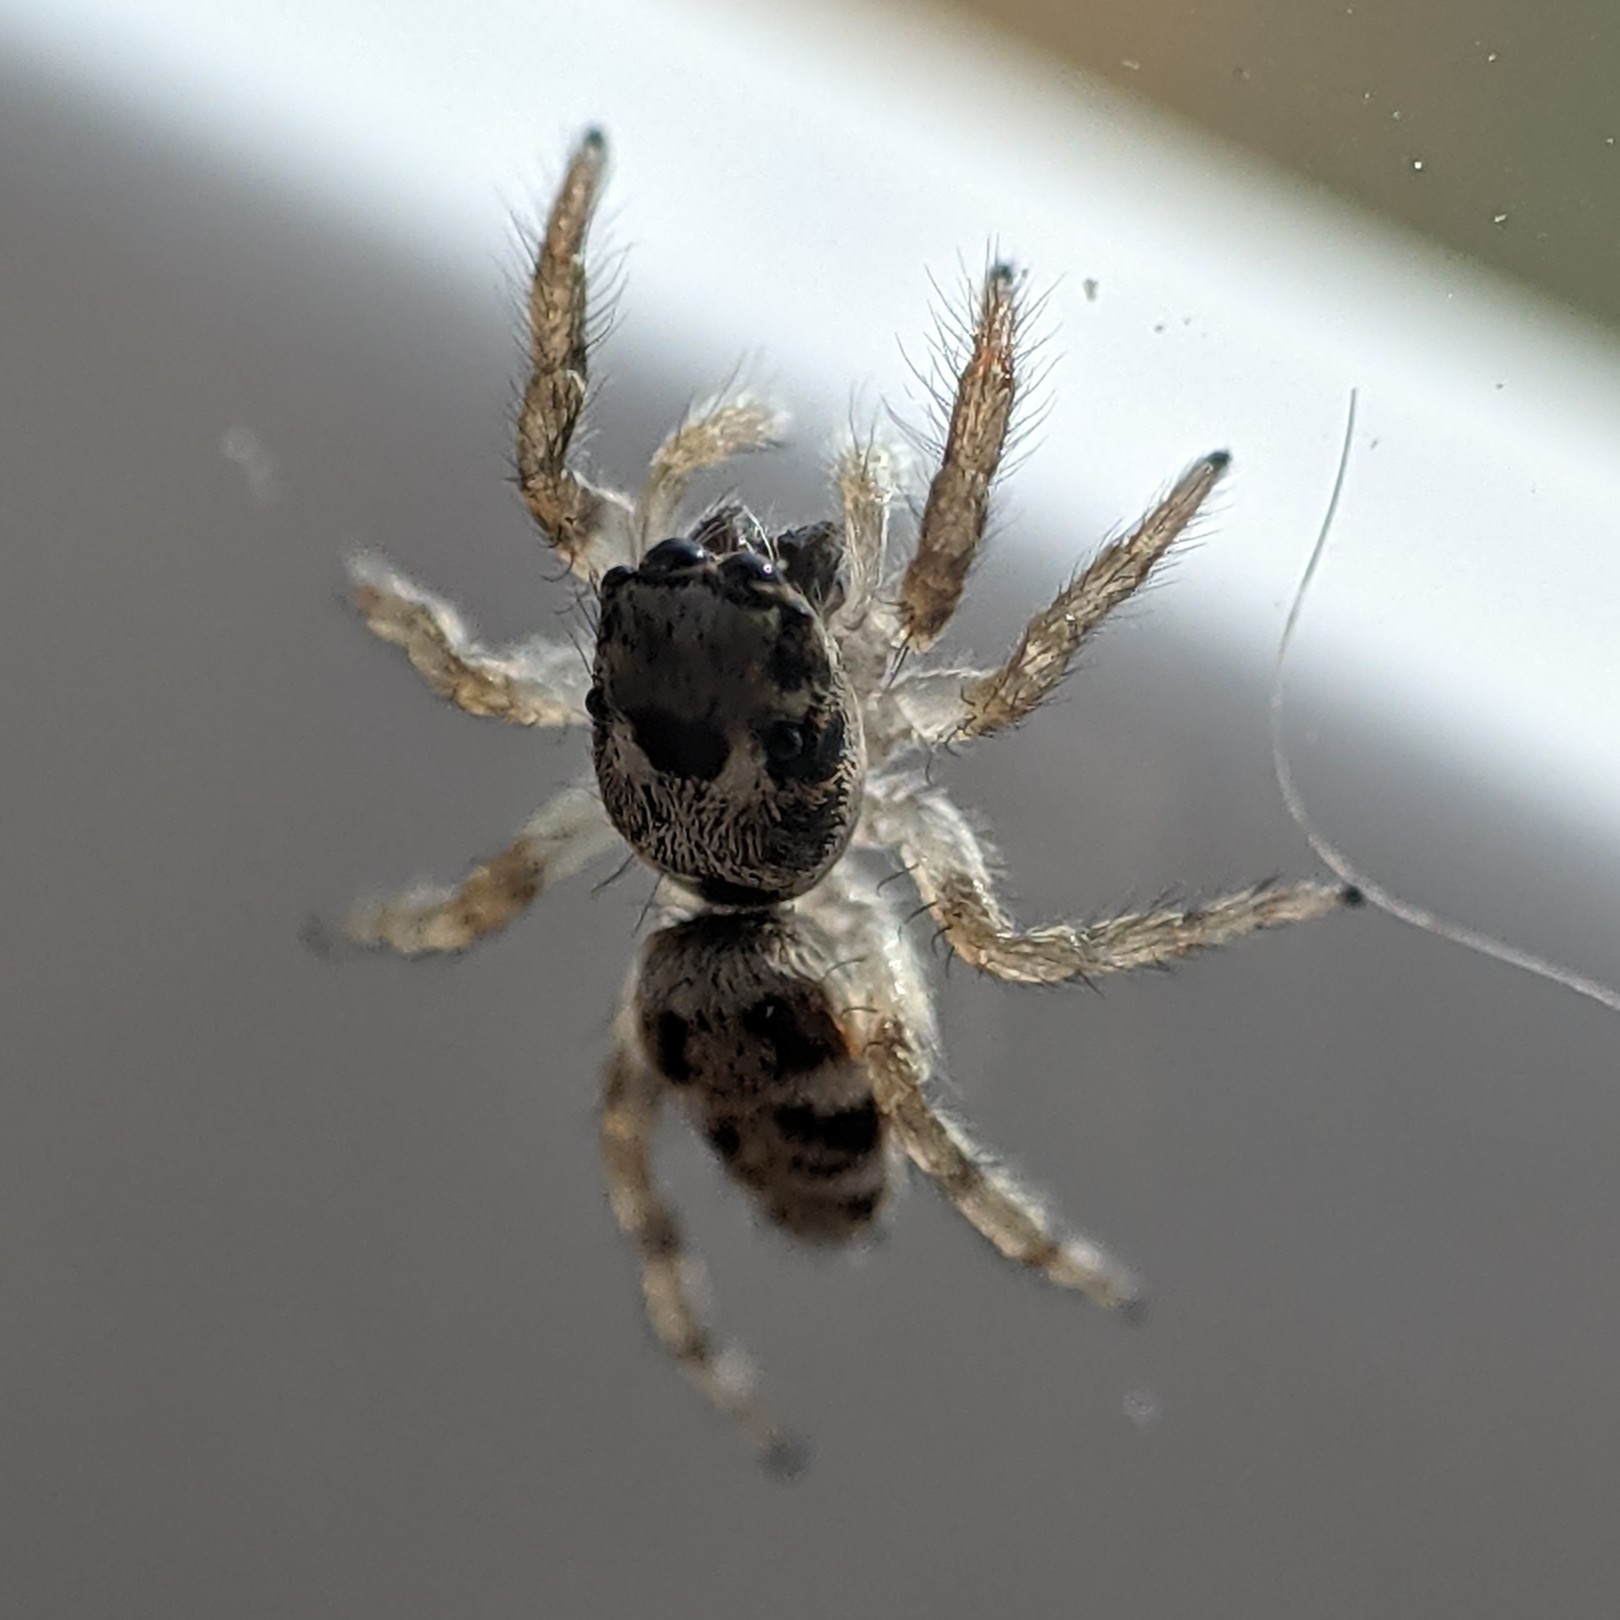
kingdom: Animalia
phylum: Arthropoda
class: Arachnida
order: Araneae
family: Salticidae
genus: Salticus
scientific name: Salticus scenicus
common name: Zebra jumper
